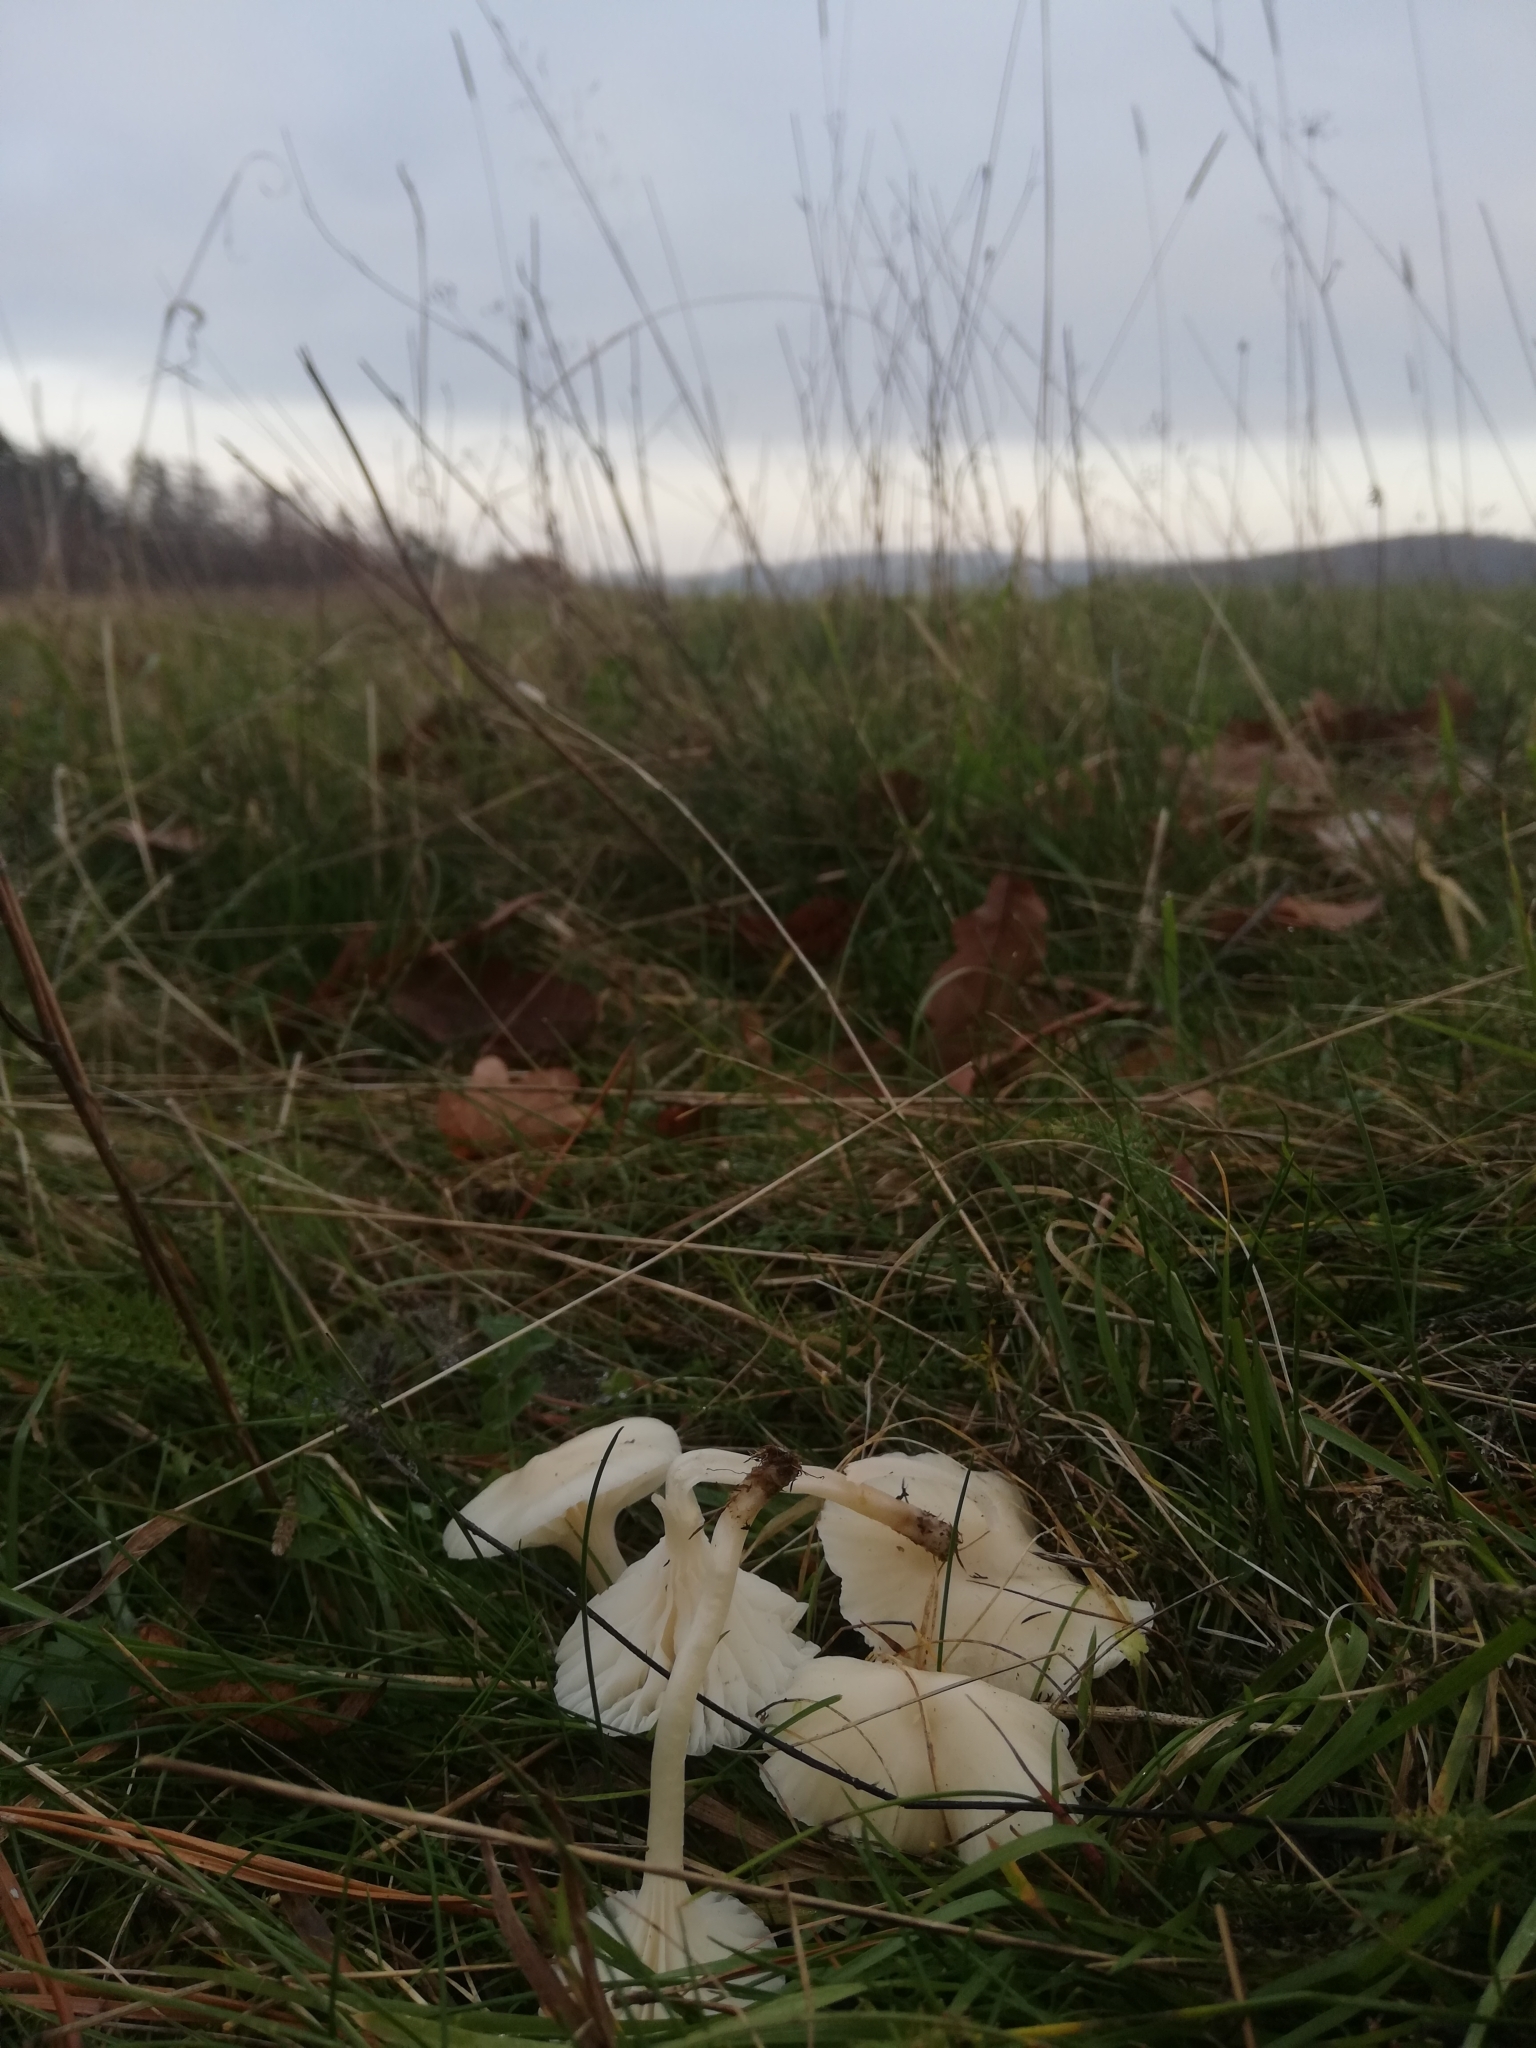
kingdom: Fungi
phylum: Basidiomycota
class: Agaricomycetes
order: Agaricales
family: Hygrophoraceae
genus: Cuphophyllus
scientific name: Cuphophyllus virgineus
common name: Snowy waxcap
